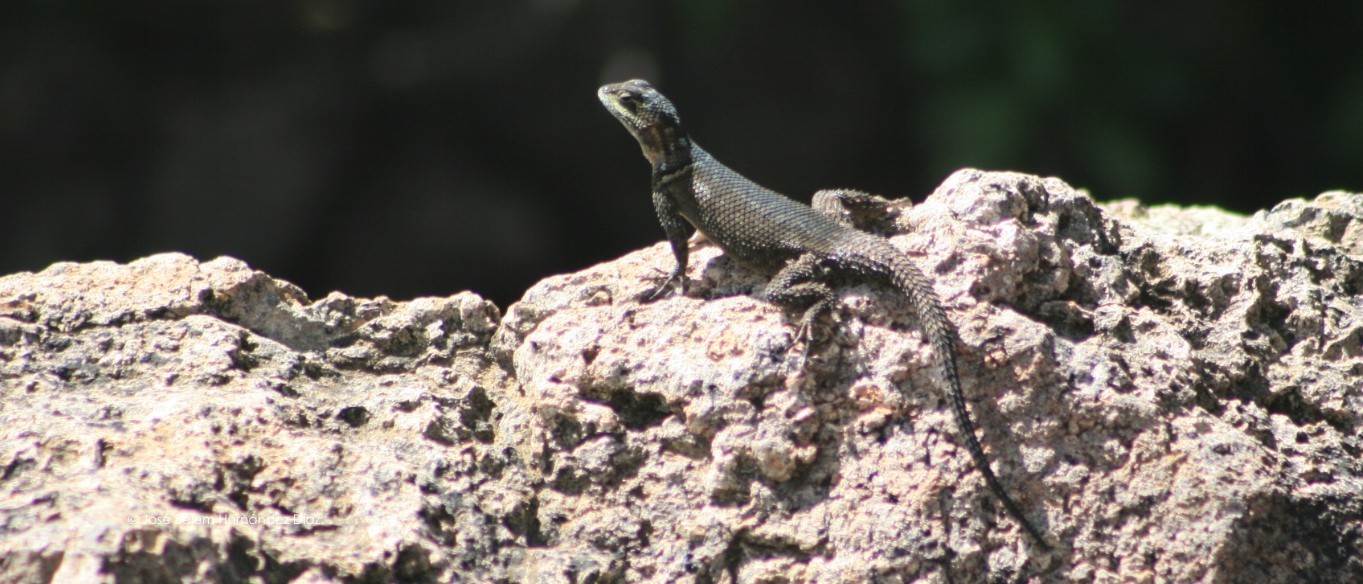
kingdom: Animalia
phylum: Chordata
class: Squamata
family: Phrynosomatidae
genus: Sceloporus
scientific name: Sceloporus minor
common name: Minor lizard
